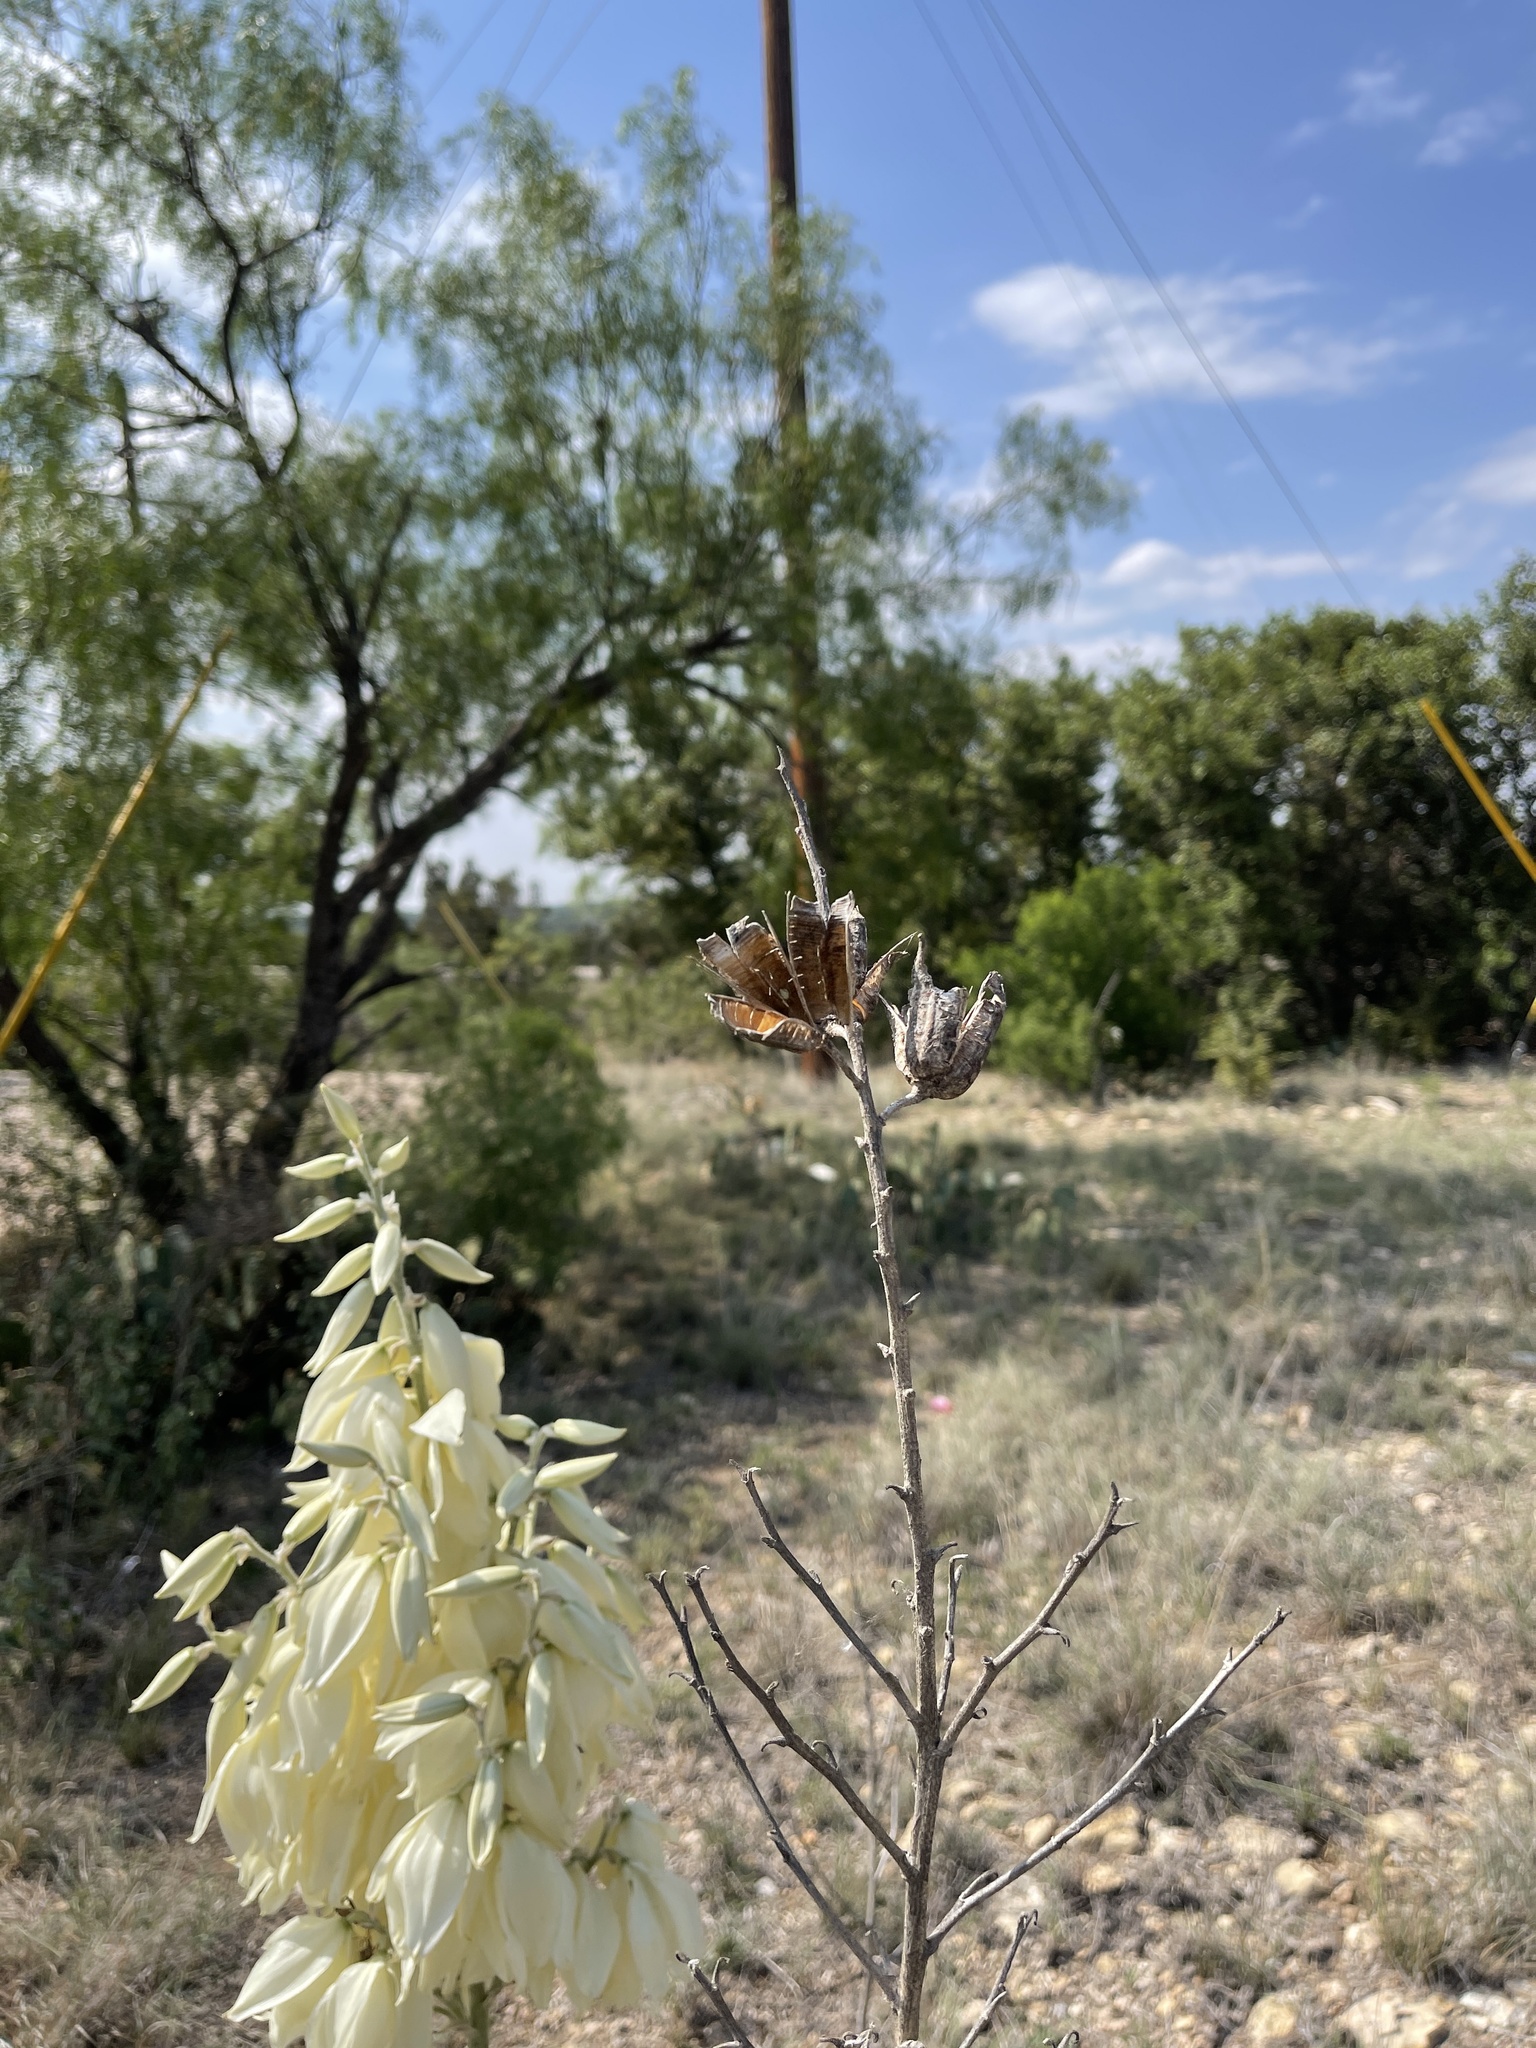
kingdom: Plantae
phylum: Tracheophyta
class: Liliopsida
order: Asparagales
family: Asparagaceae
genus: Yucca
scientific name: Yucca reverchonii
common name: San angelo yucca
